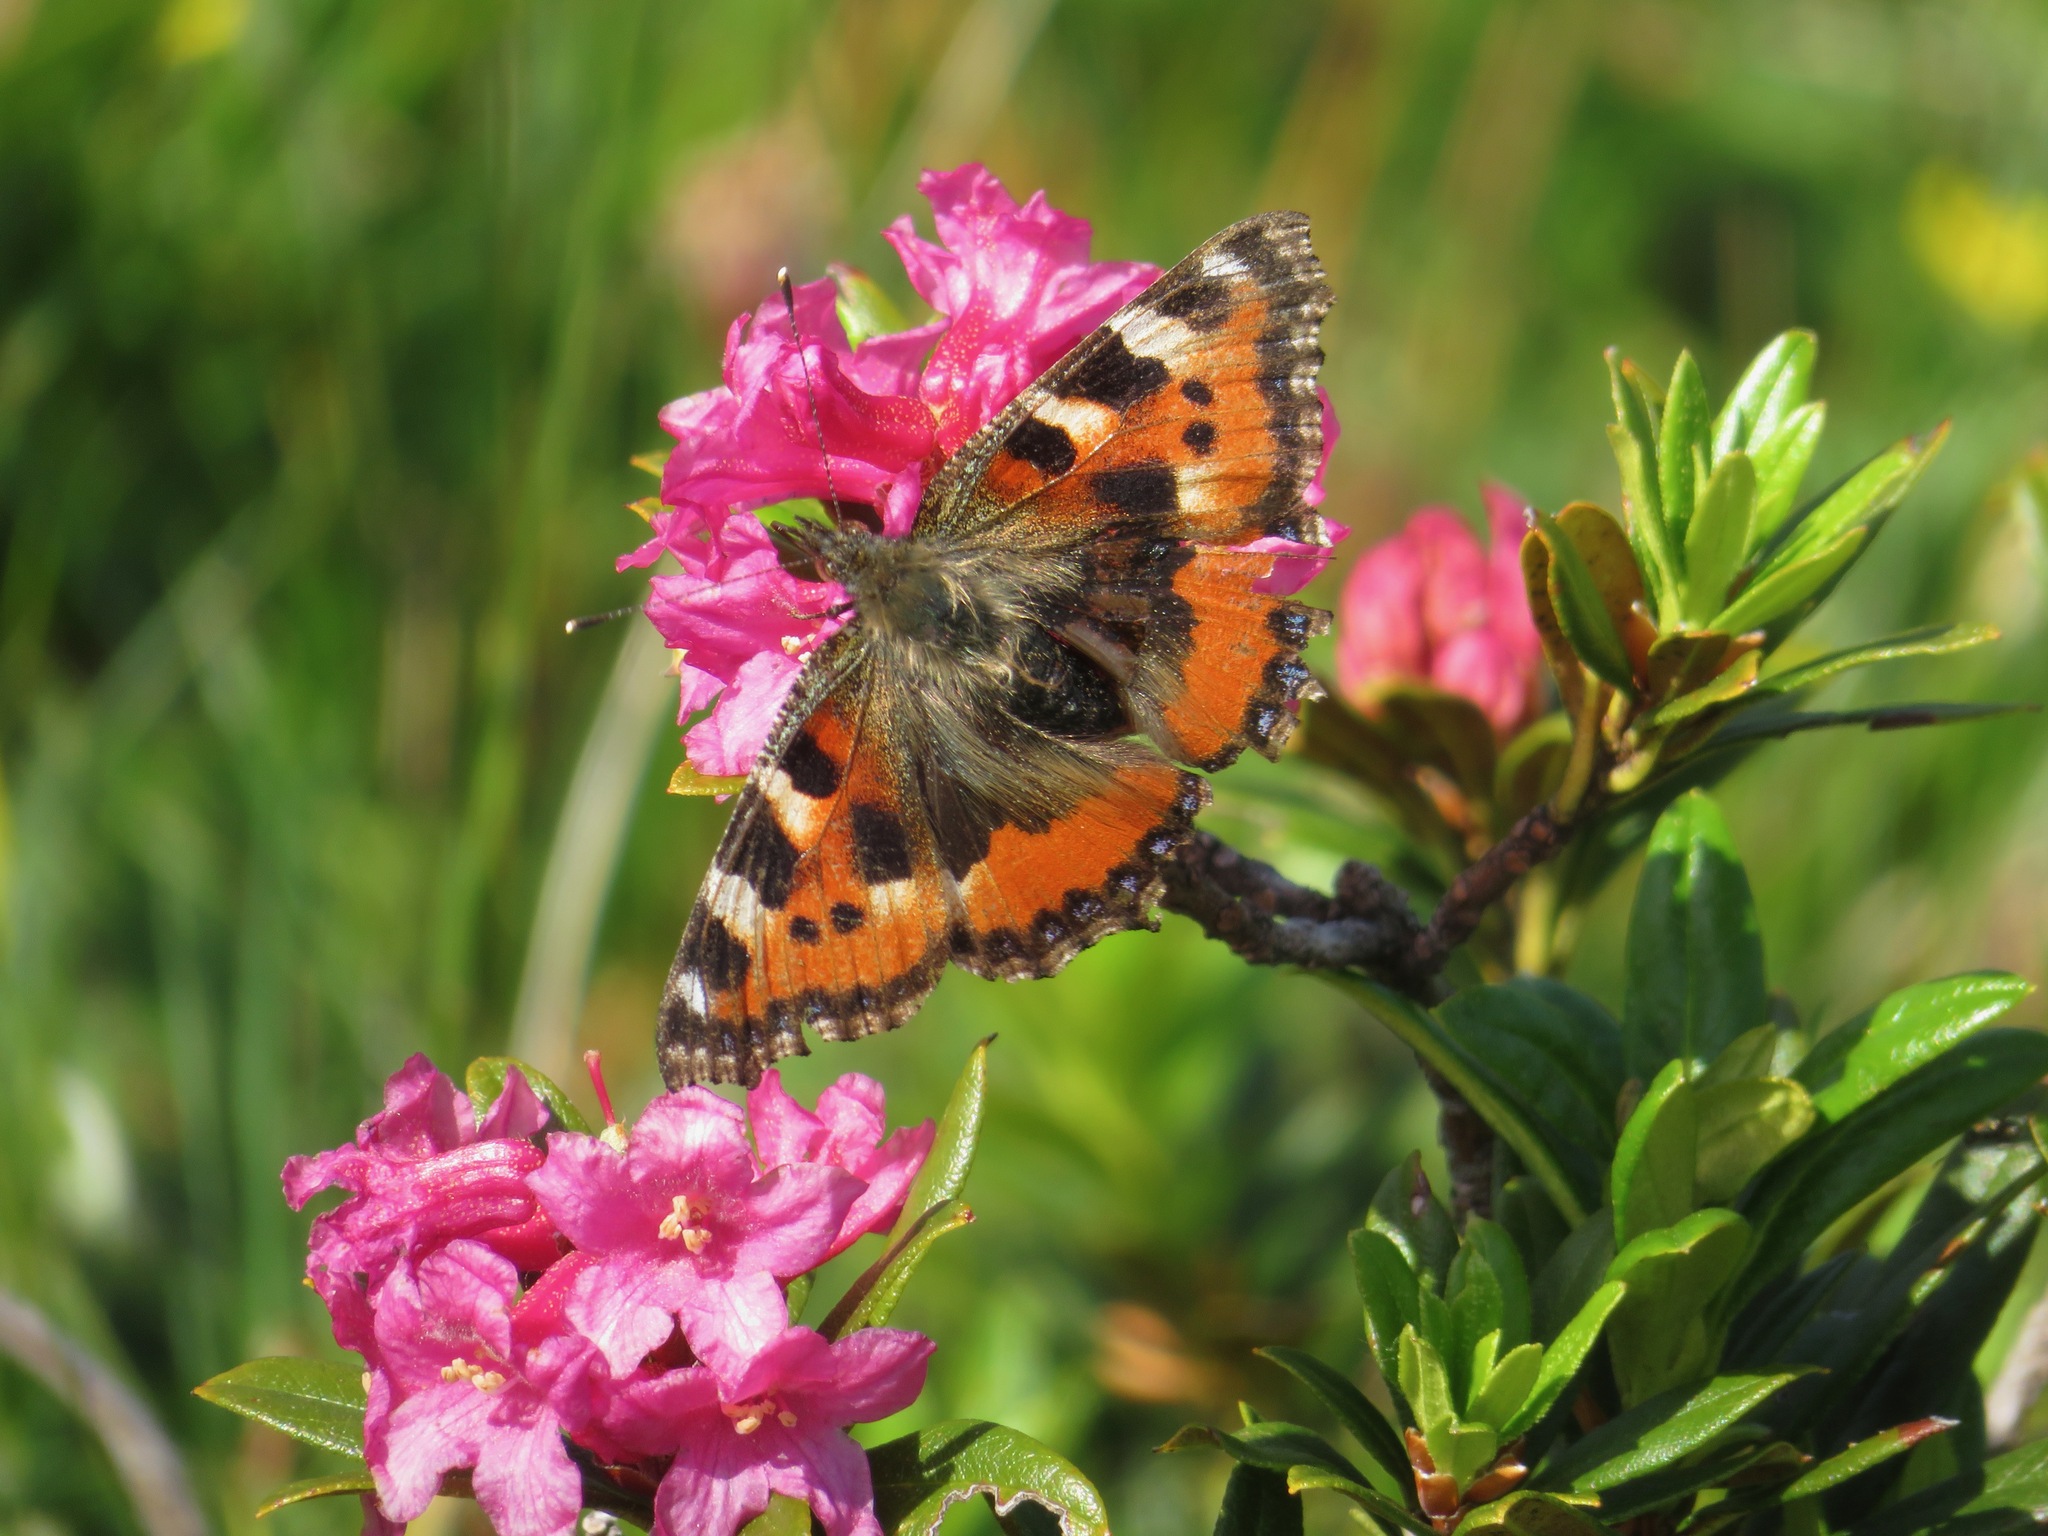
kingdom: Animalia
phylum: Arthropoda
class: Insecta
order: Lepidoptera
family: Nymphalidae
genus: Aglais
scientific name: Aglais urticae
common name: Small tortoiseshell
